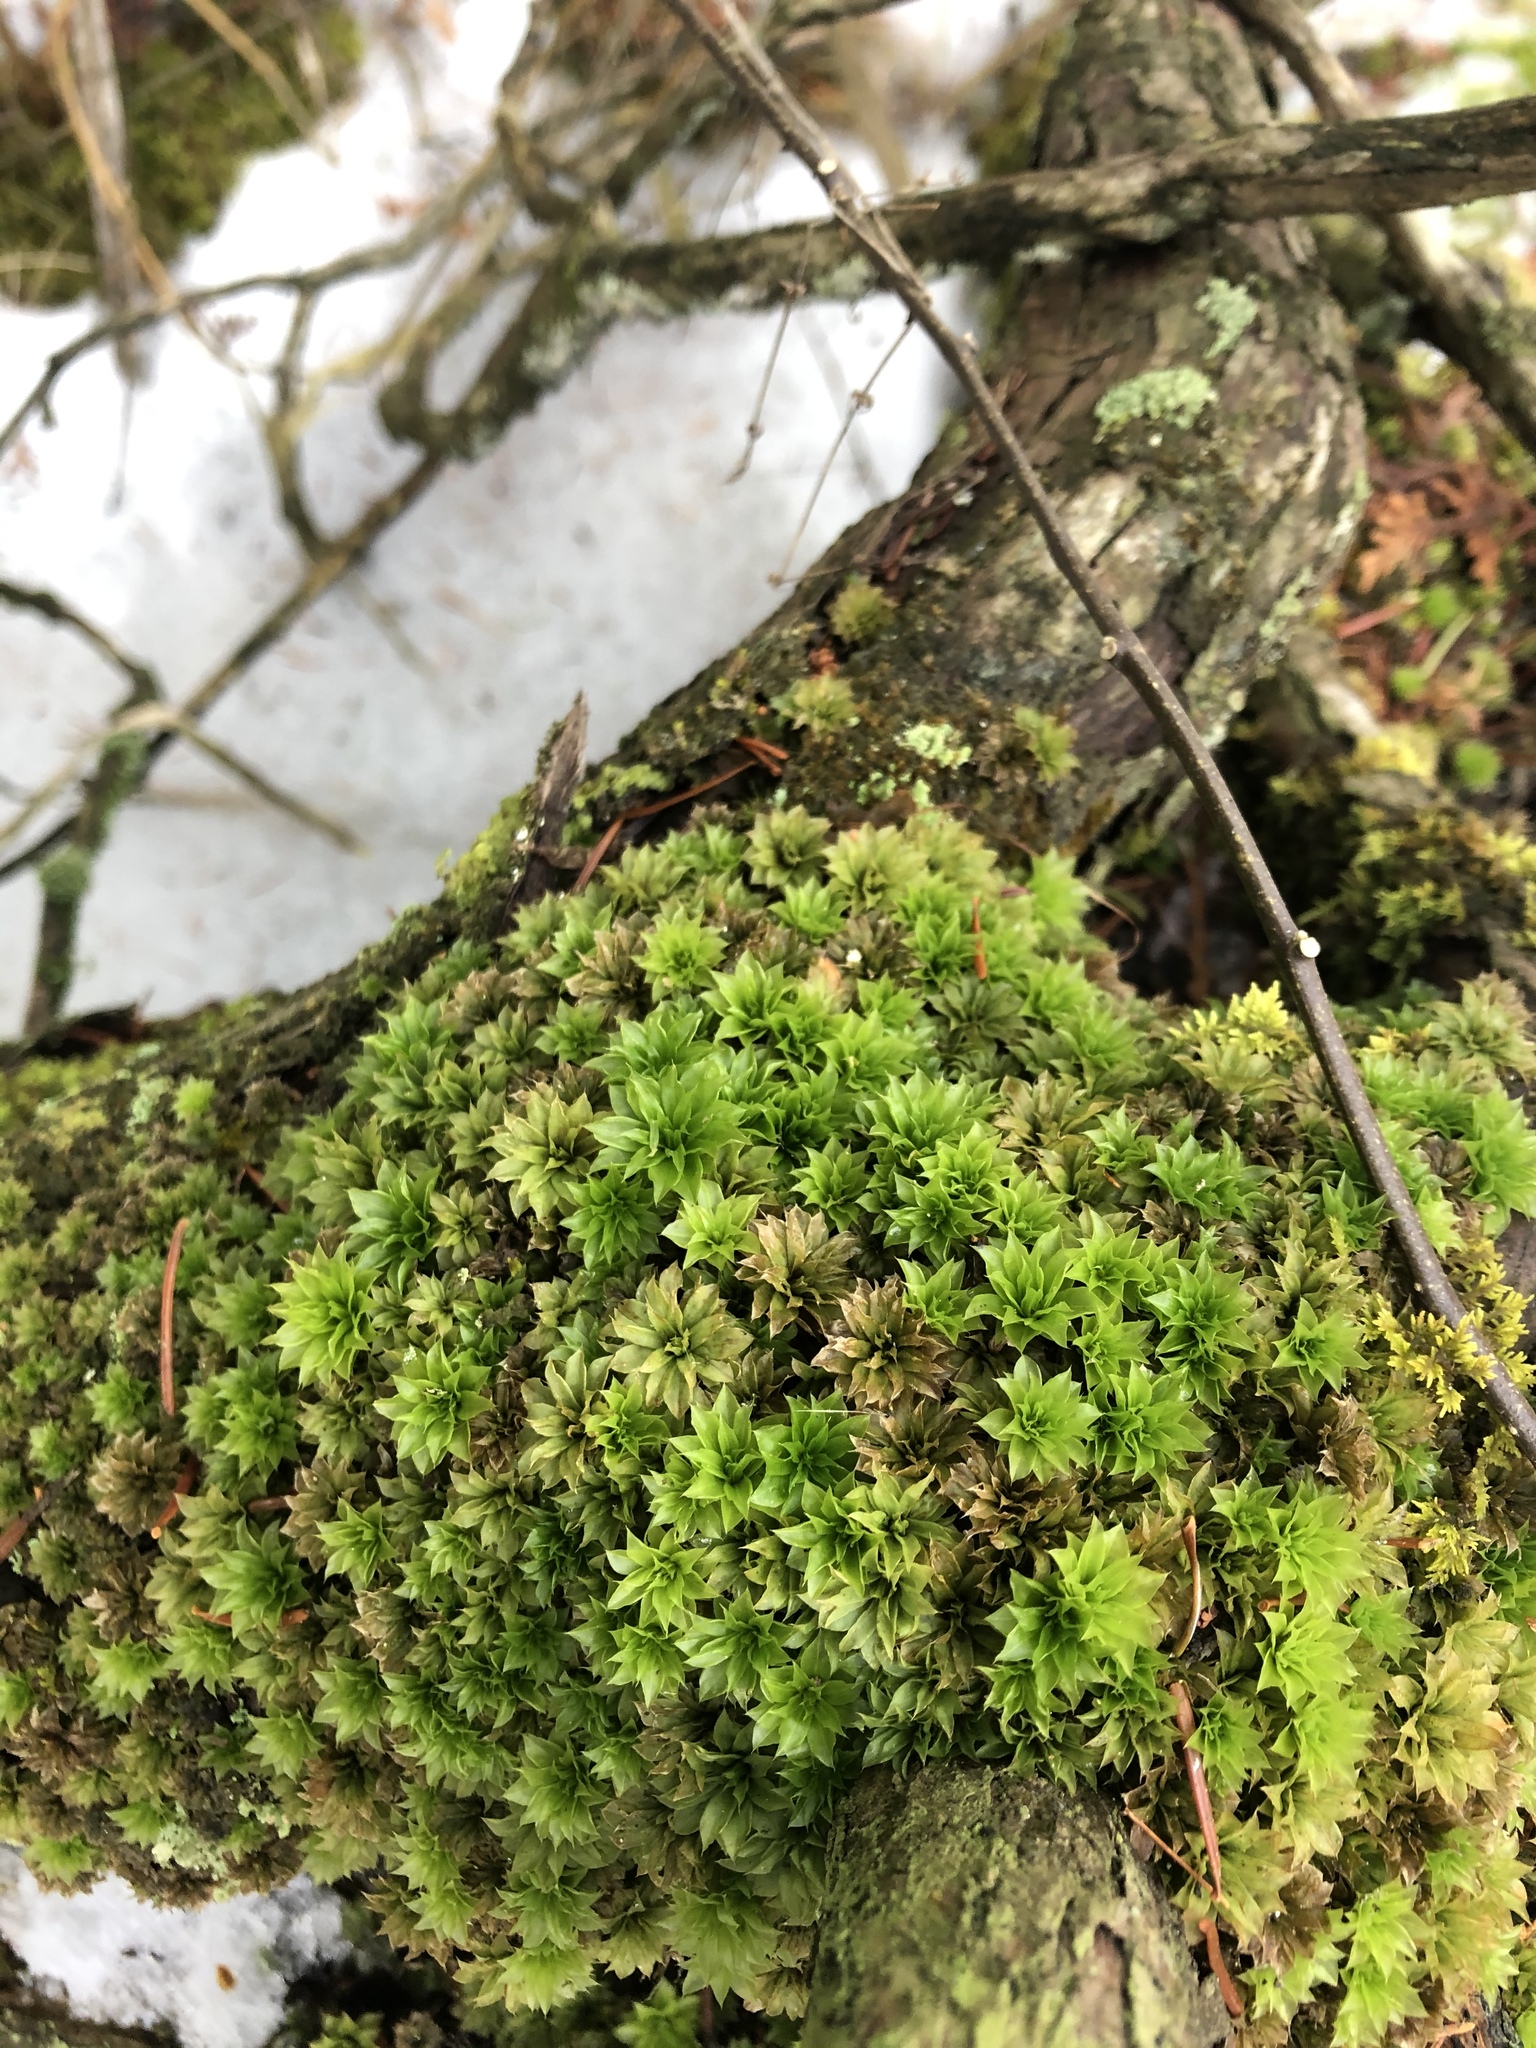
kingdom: Plantae
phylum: Bryophyta
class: Bryopsida
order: Bryales
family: Bryaceae
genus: Rhodobryum
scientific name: Rhodobryum ontariense
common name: Ontario rhodobryum moss
